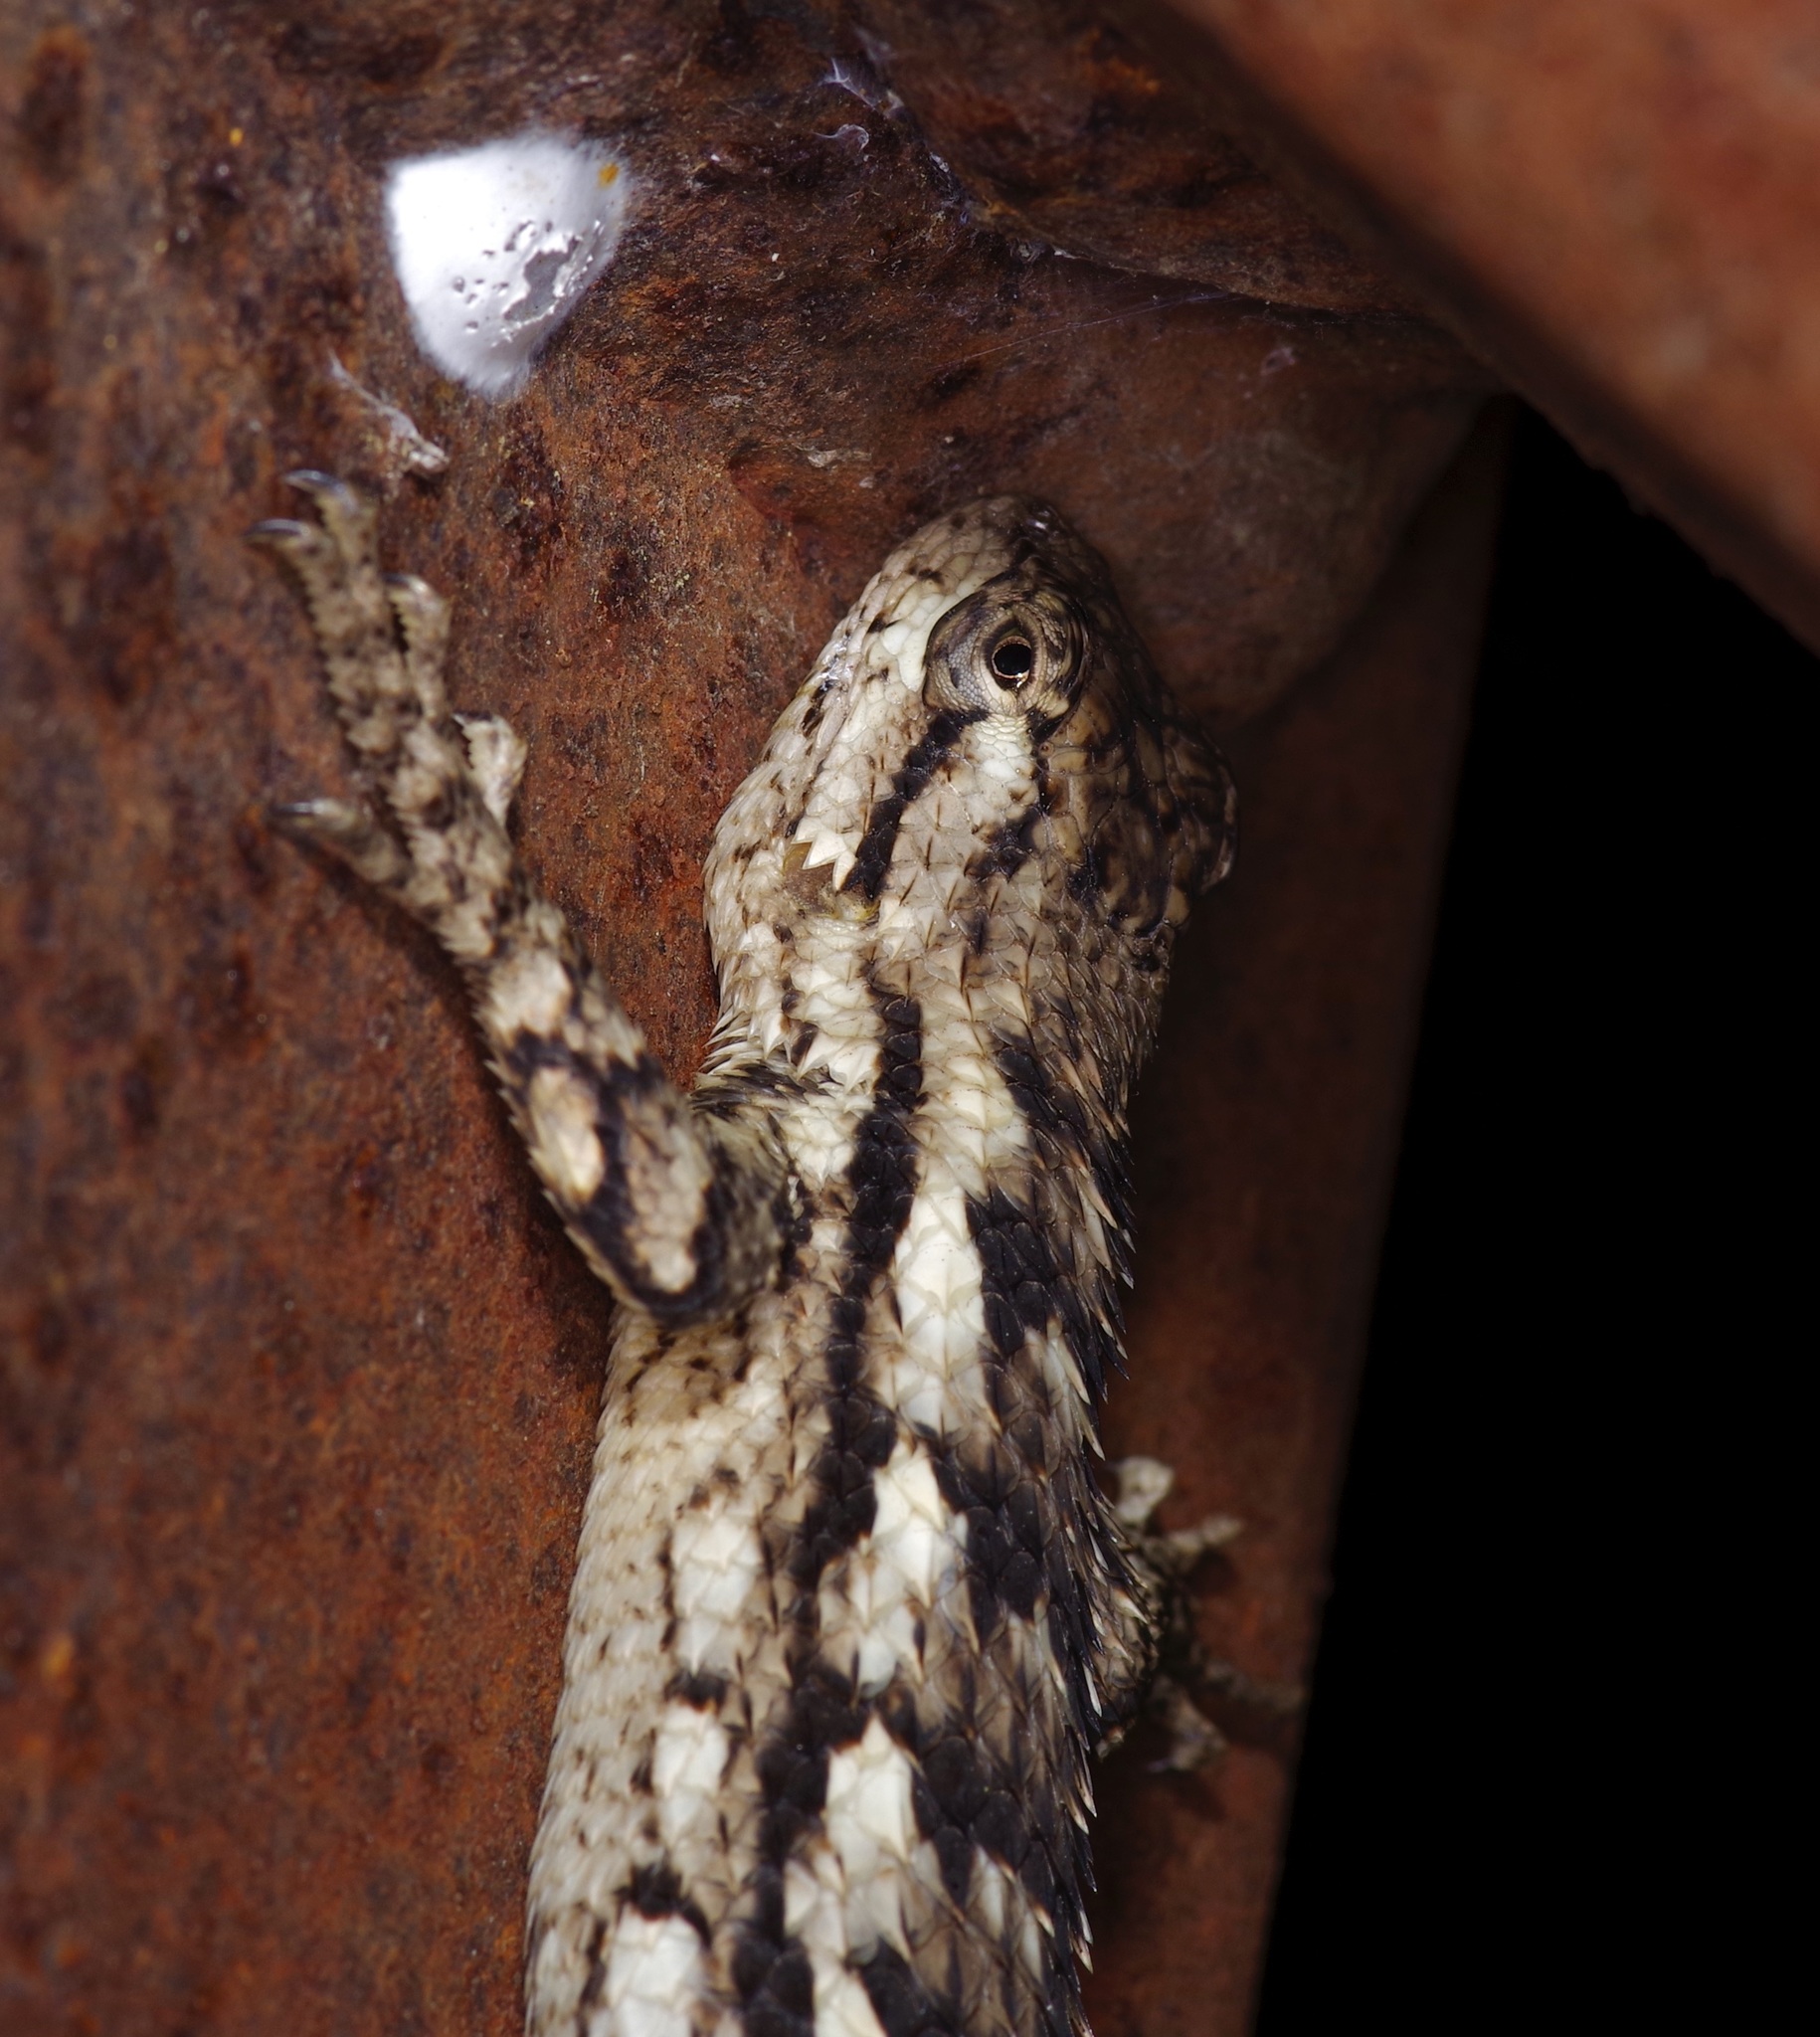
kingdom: Animalia
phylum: Chordata
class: Squamata
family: Phrynosomatidae
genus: Sceloporus
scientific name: Sceloporus olivaceus
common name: Texas spiny lizard
